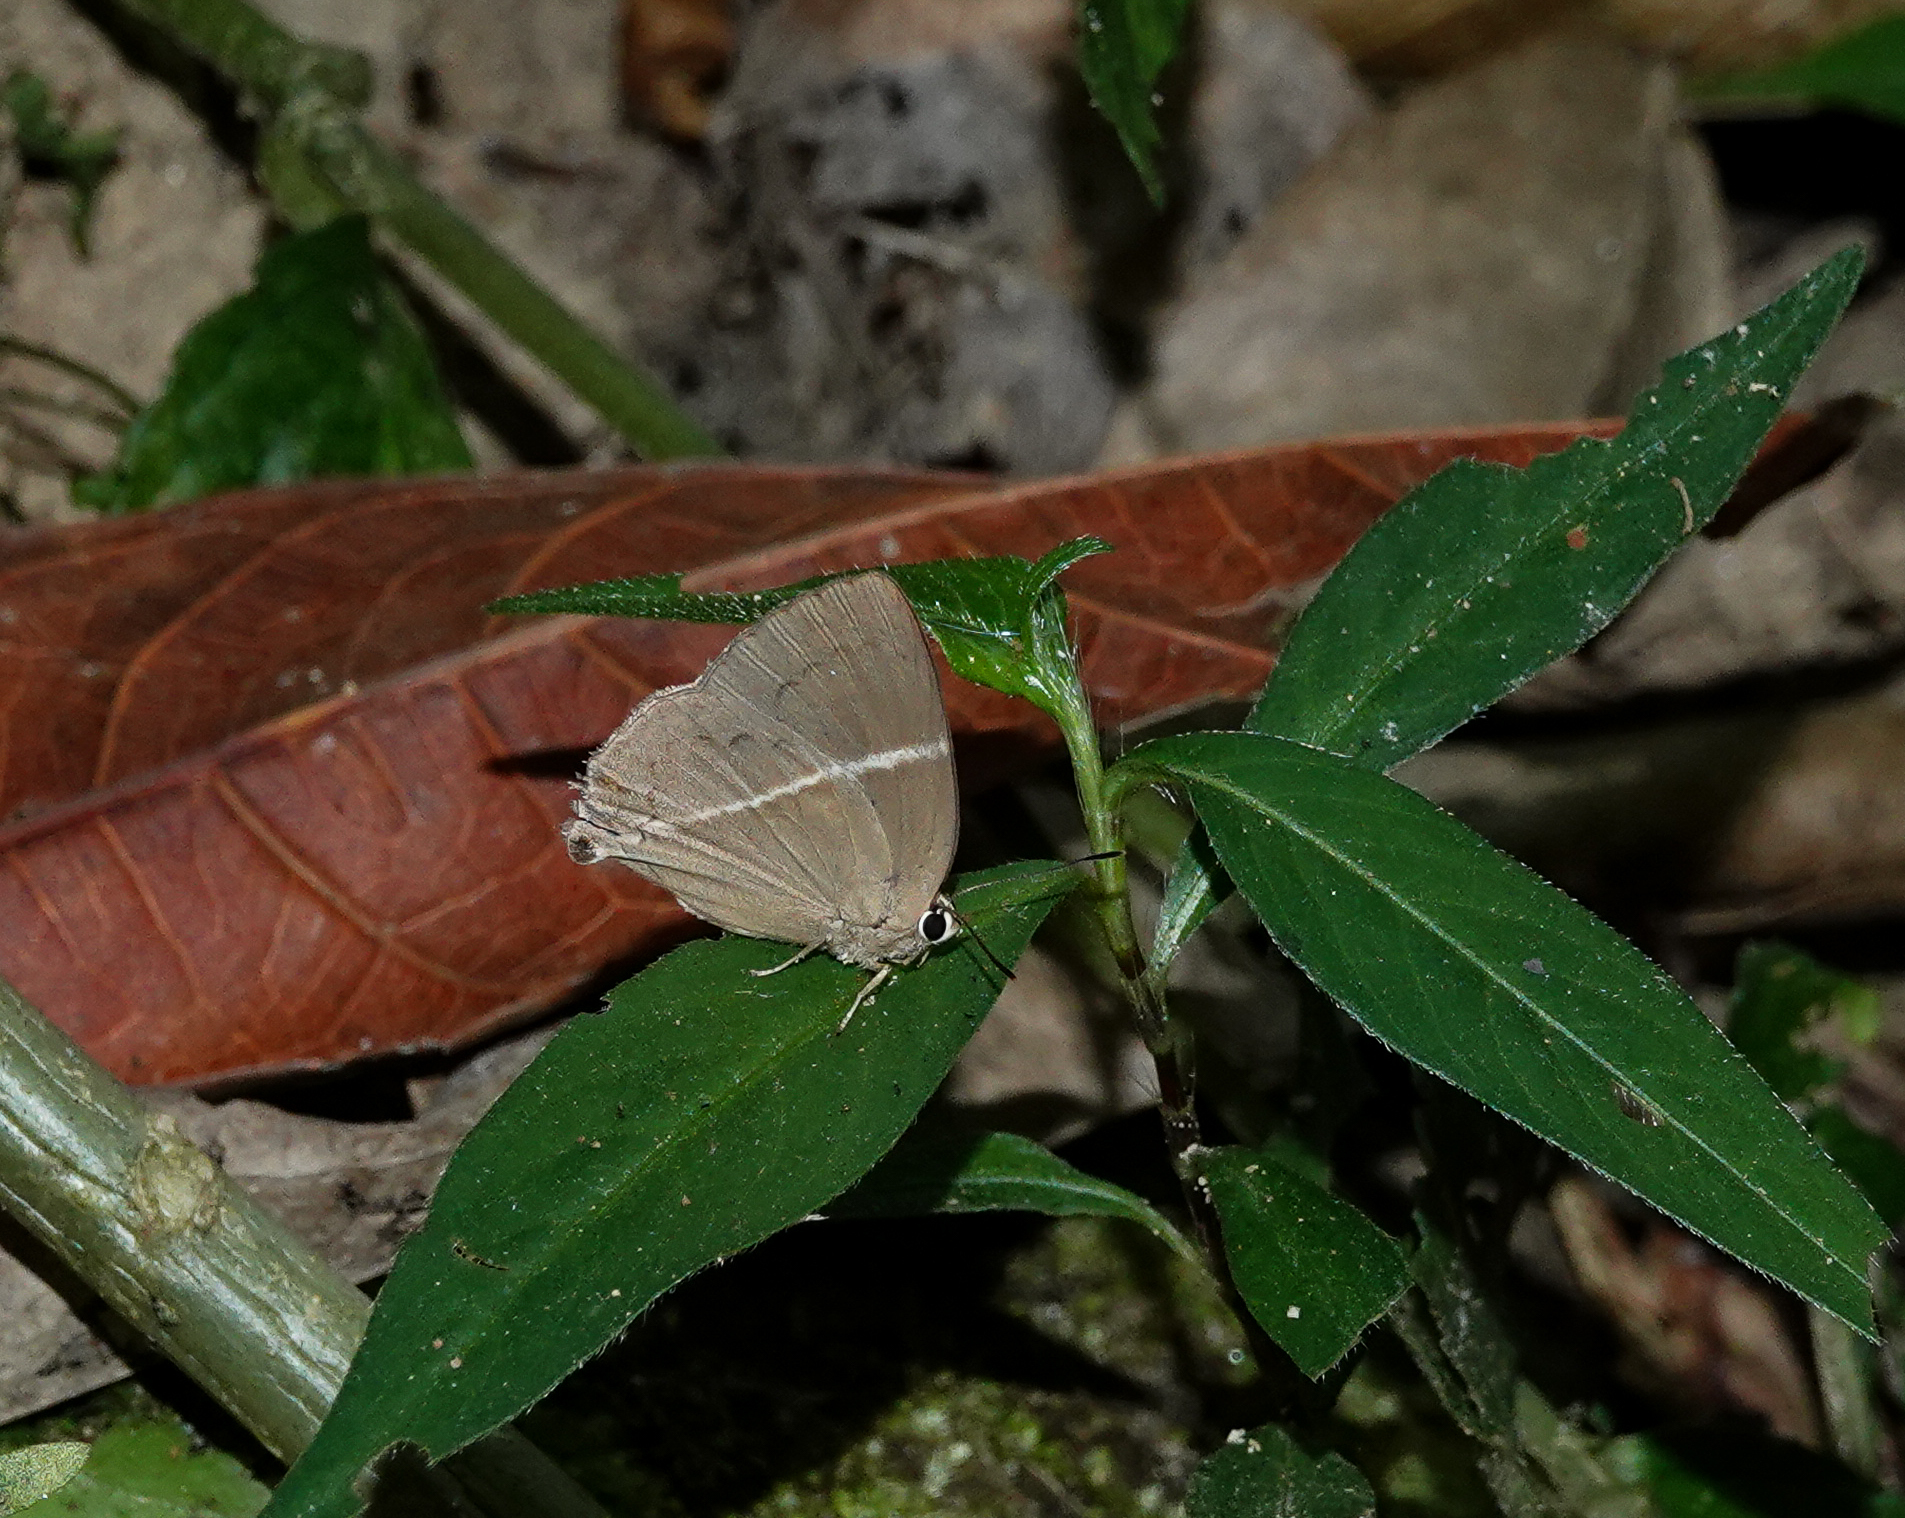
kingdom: Animalia
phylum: Arthropoda
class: Insecta
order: Lepidoptera
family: Lycaenidae
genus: Dacalana
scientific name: Dacalana pencilligera
